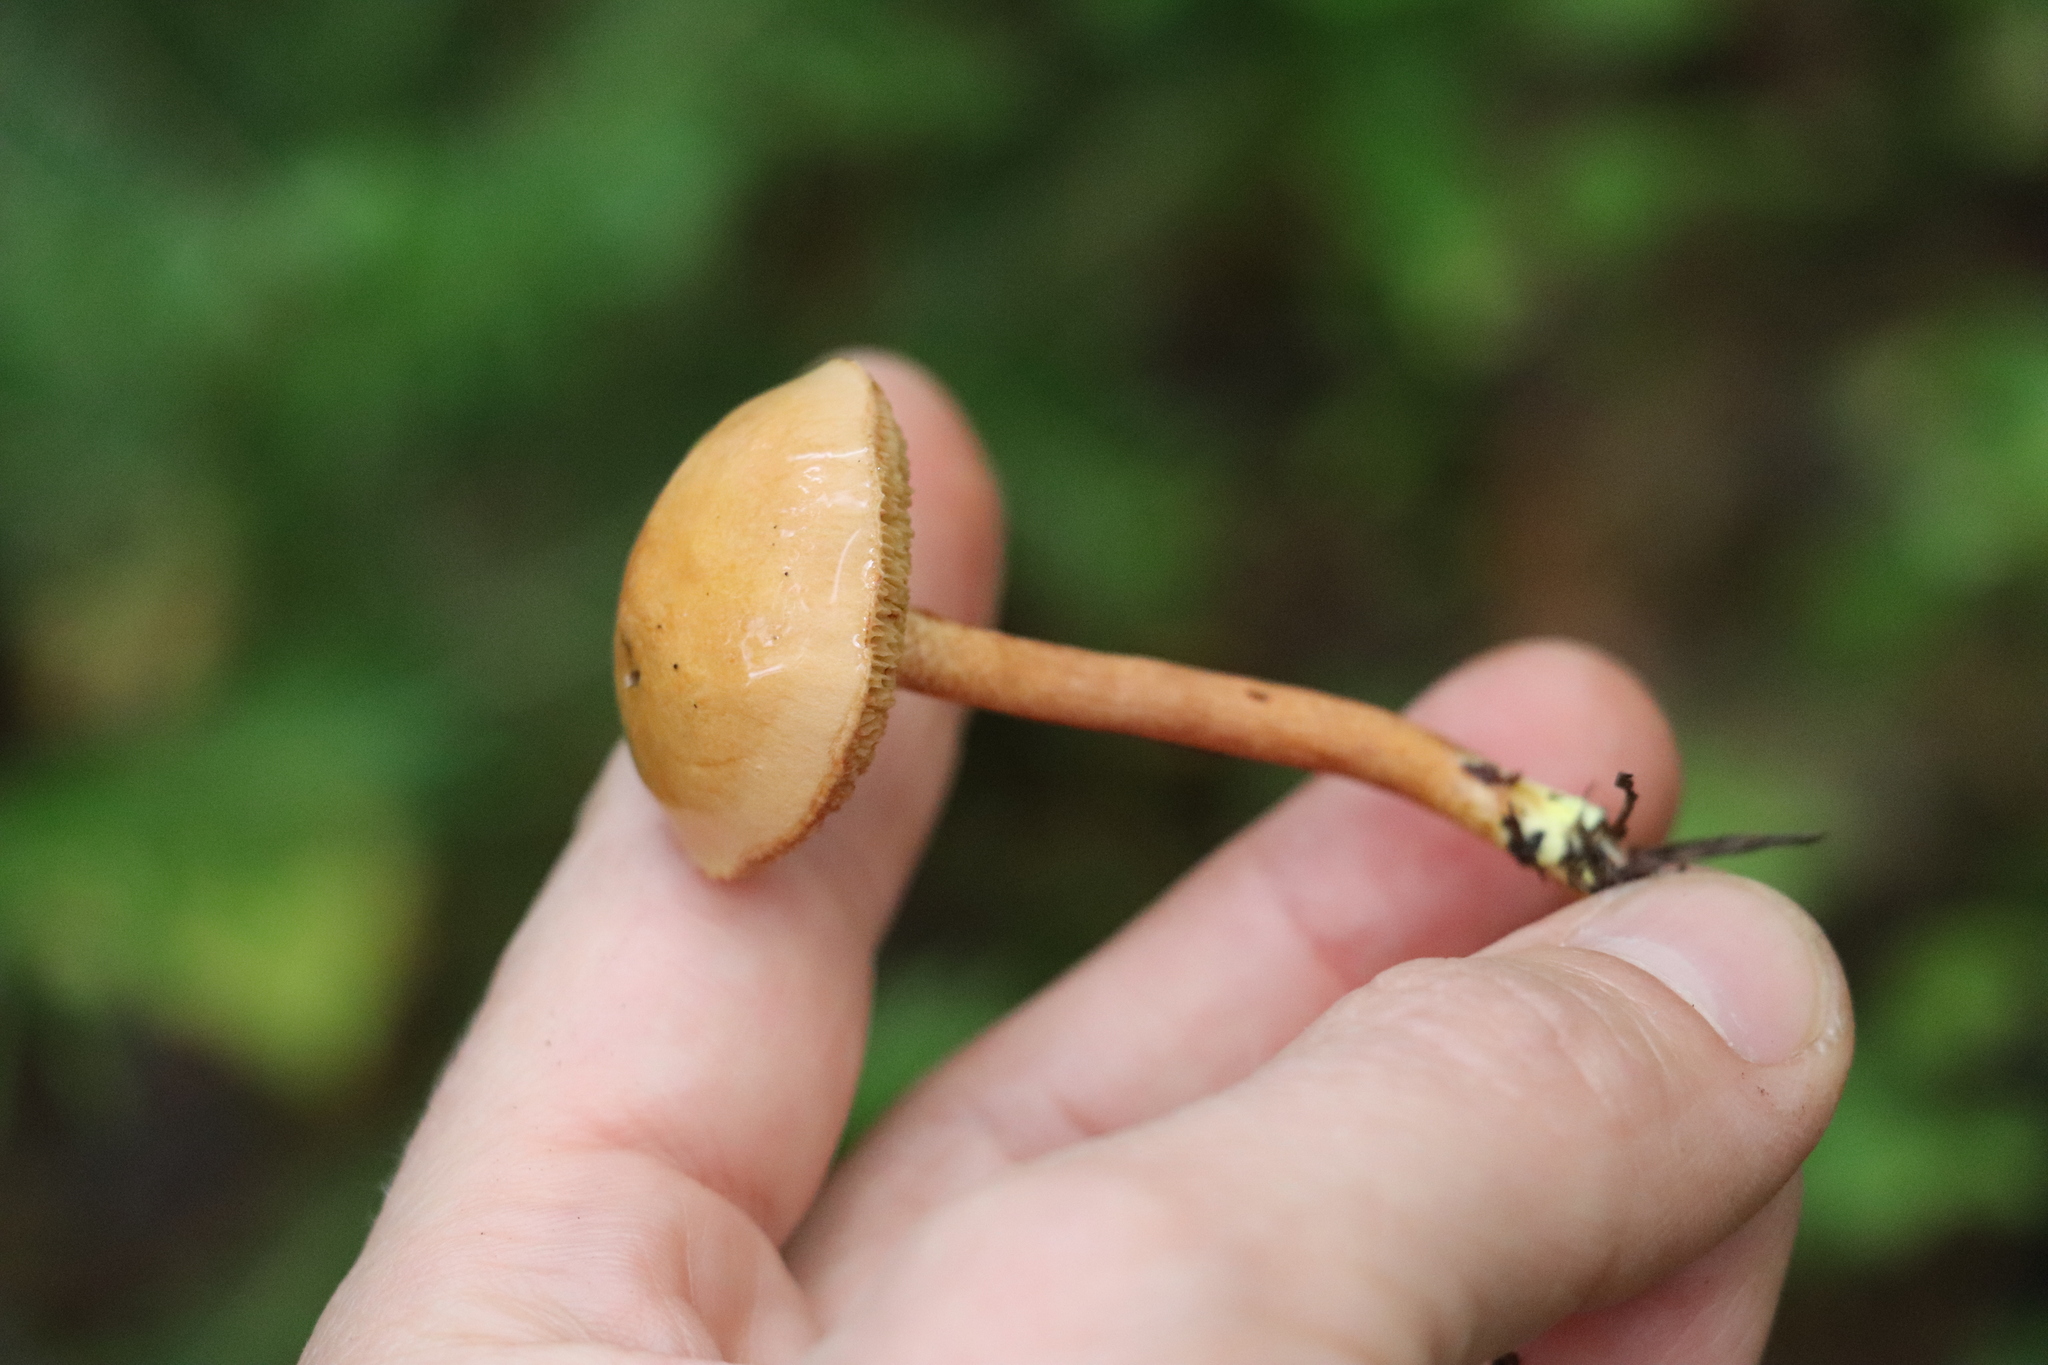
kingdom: Fungi
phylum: Basidiomycota
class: Agaricomycetes
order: Boletales
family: Boletaceae
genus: Chalciporus
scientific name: Chalciporus piperatus
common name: Peppery bolete
